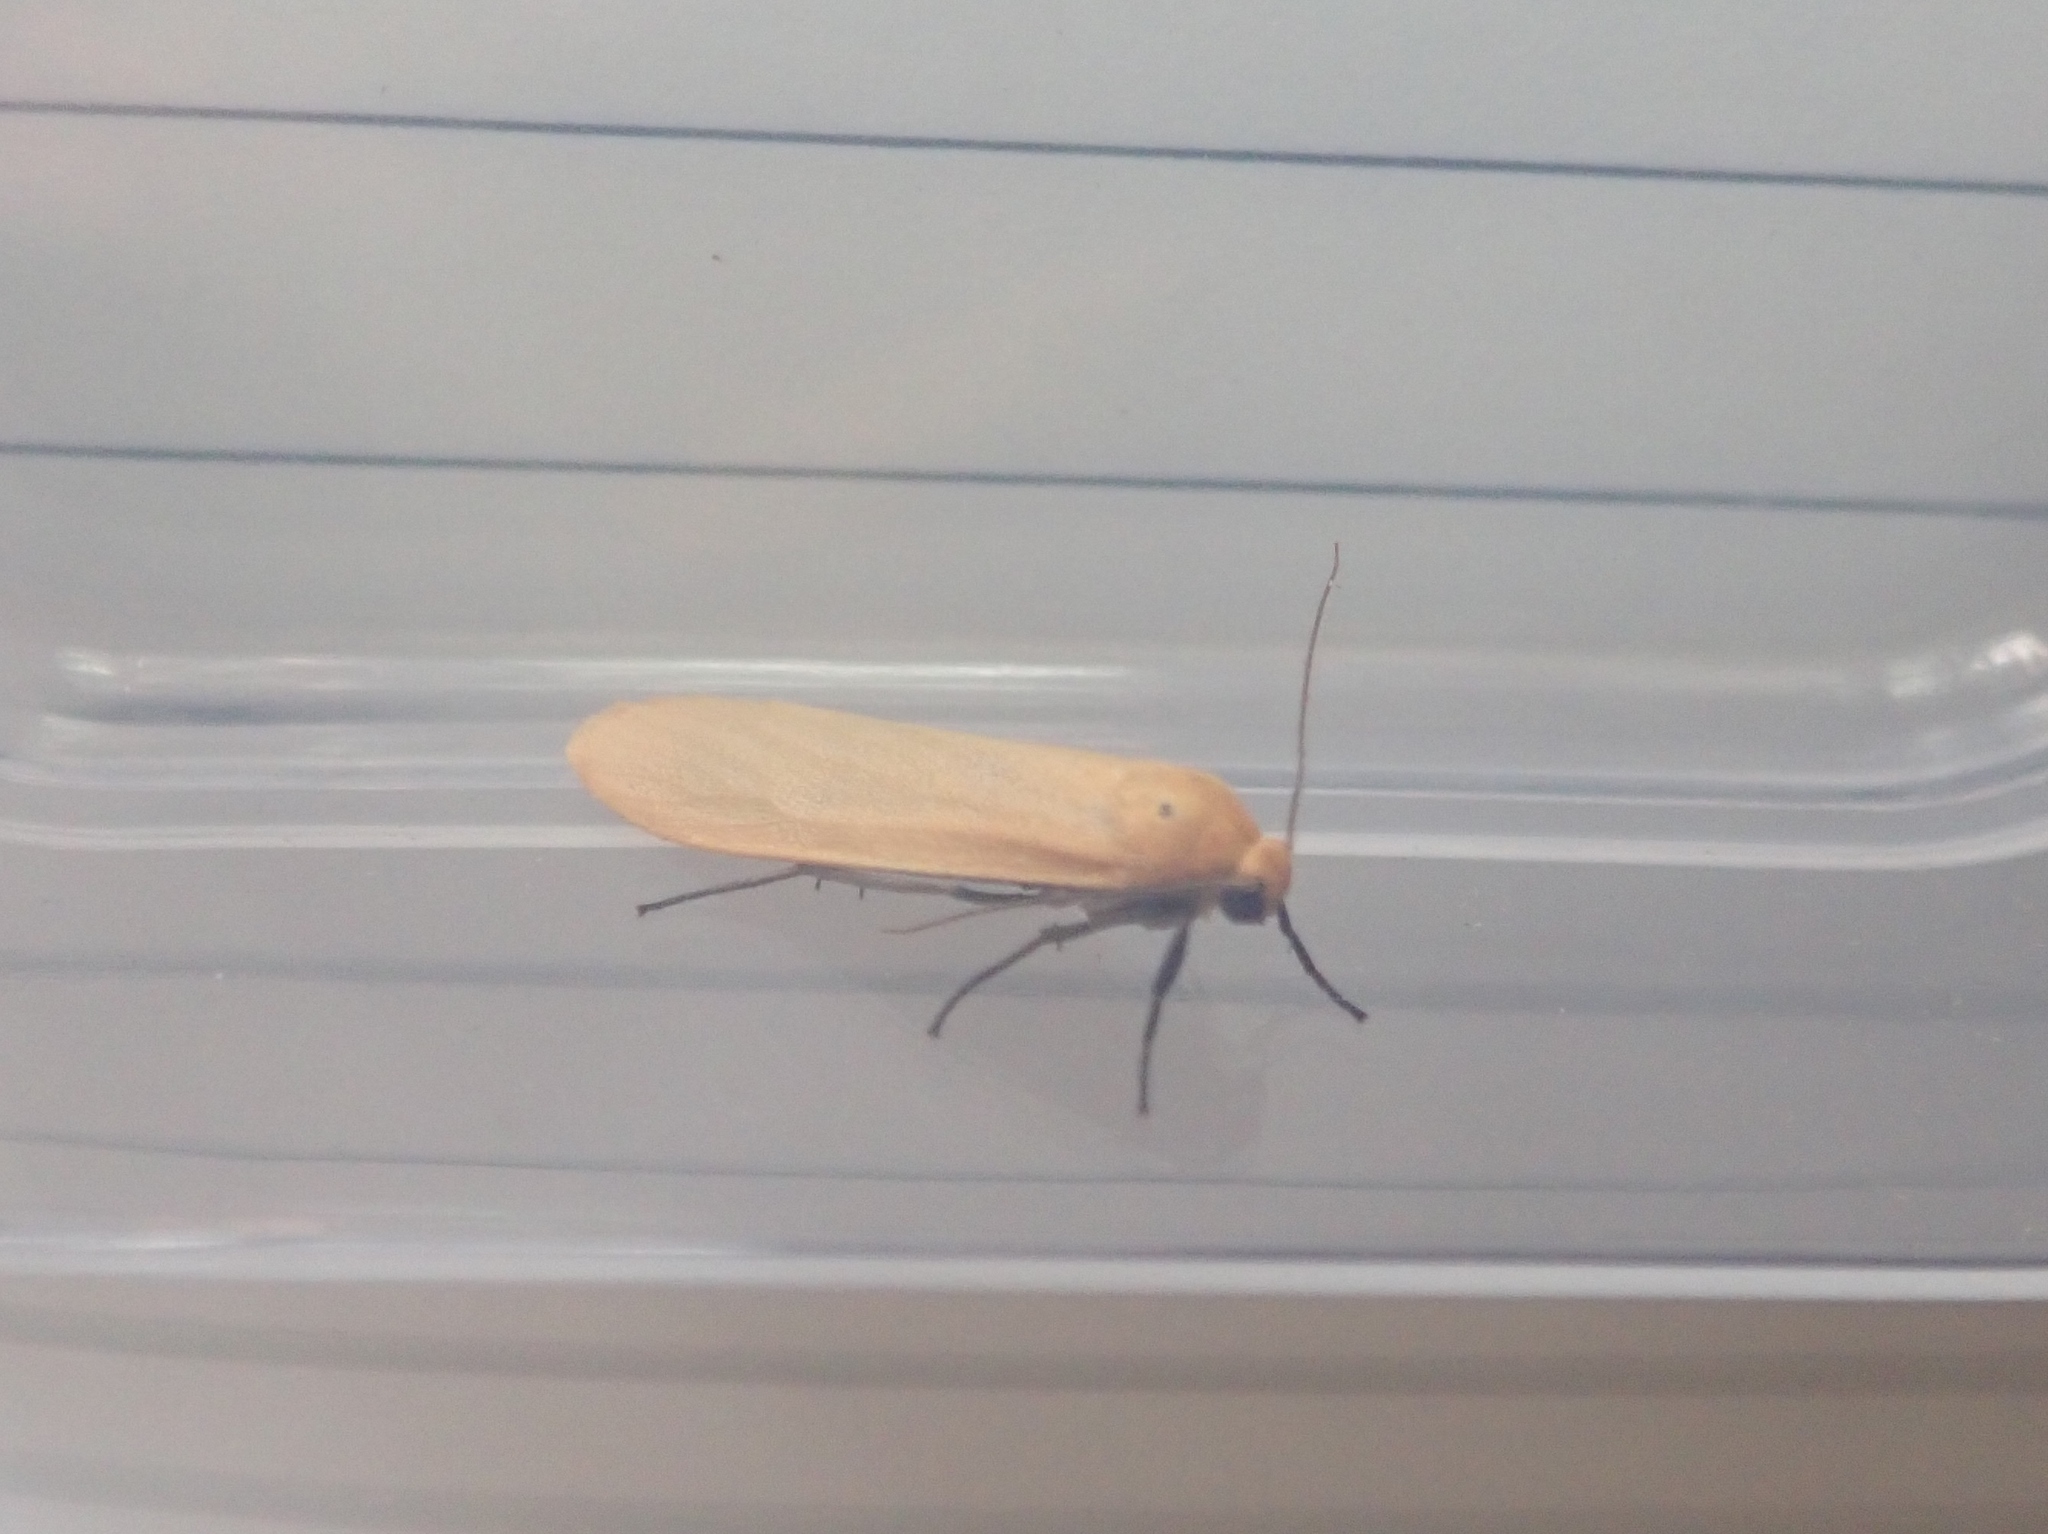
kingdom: Animalia
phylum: Arthropoda
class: Insecta
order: Lepidoptera
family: Erebidae
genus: Wittia
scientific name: Wittia sororcula
